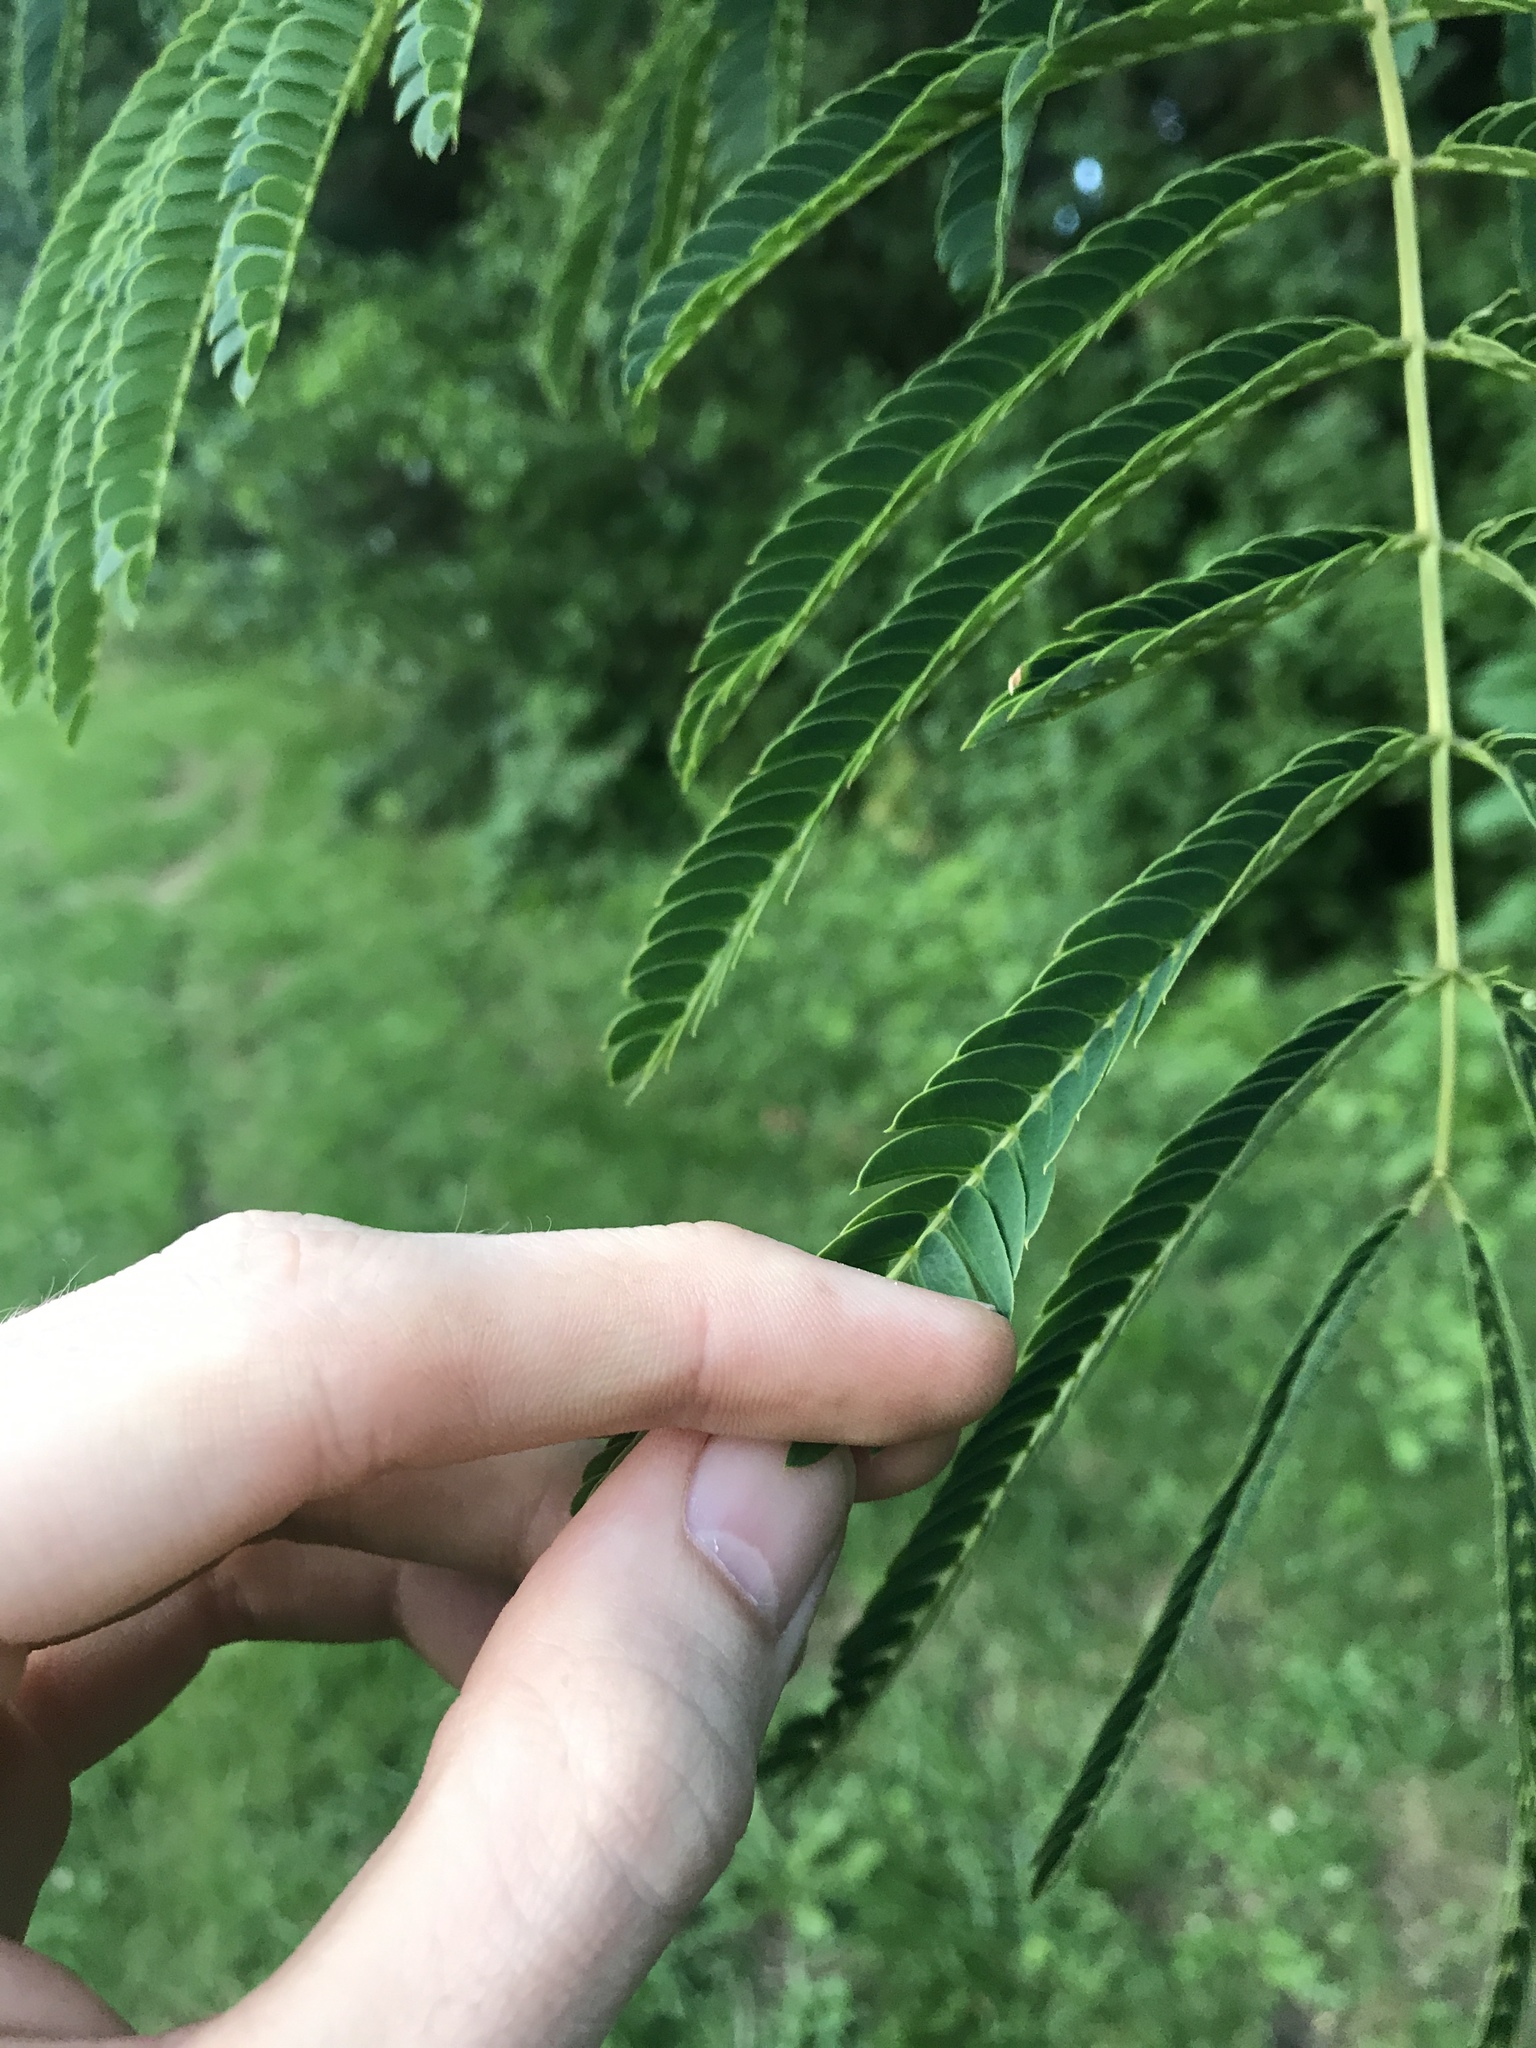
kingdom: Plantae
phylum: Tracheophyta
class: Magnoliopsida
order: Fabales
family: Fabaceae
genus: Albizia
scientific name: Albizia julibrissin
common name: Silktree
